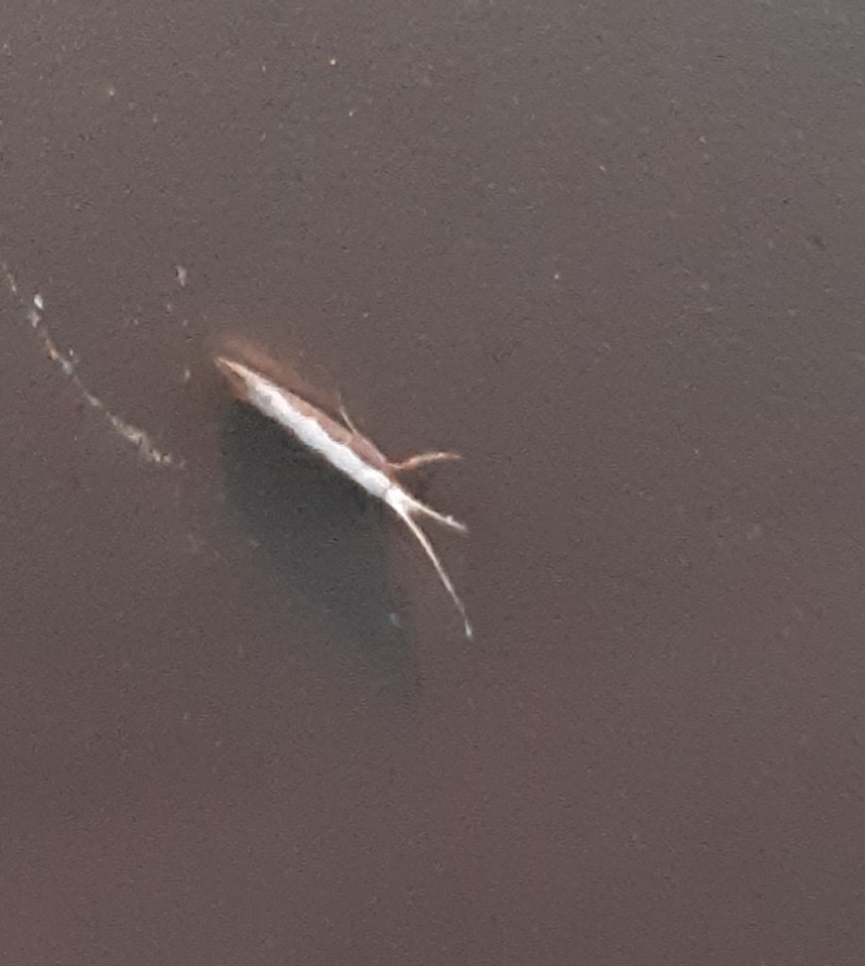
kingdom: Animalia
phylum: Arthropoda
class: Insecta
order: Lepidoptera
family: Plutellidae
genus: Plutella
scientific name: Plutella xylostella
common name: Diamond-back moth
